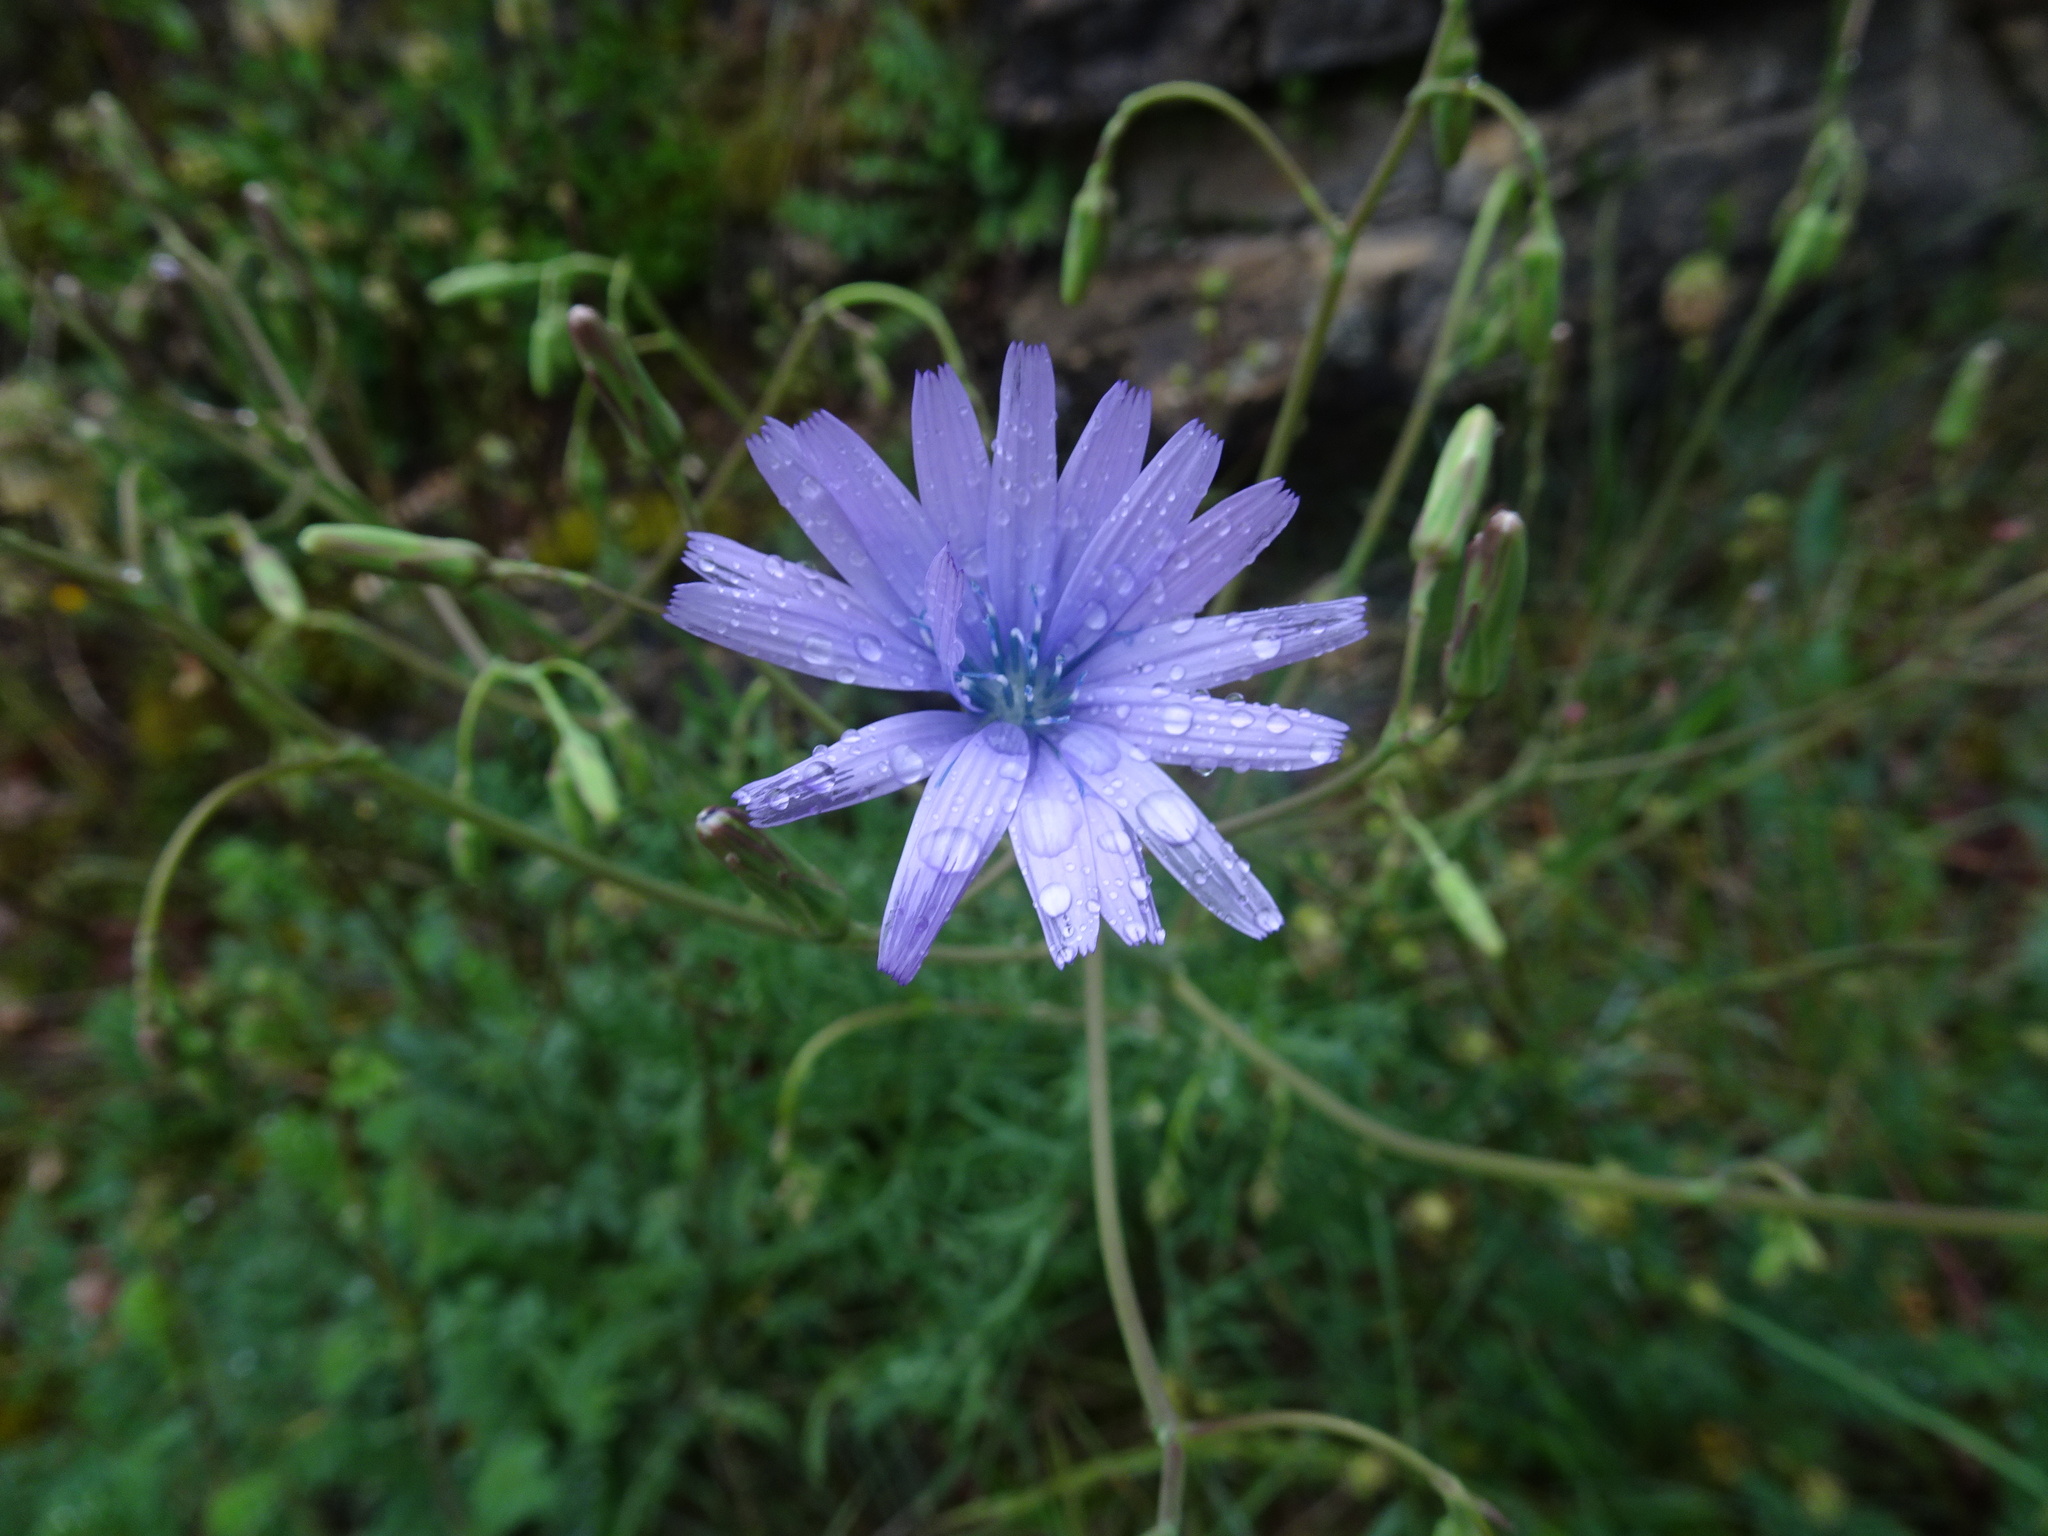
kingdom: Plantae
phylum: Tracheophyta
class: Magnoliopsida
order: Asterales
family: Asteraceae
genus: Lactuca
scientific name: Lactuca perennis
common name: Mountain lettuce
